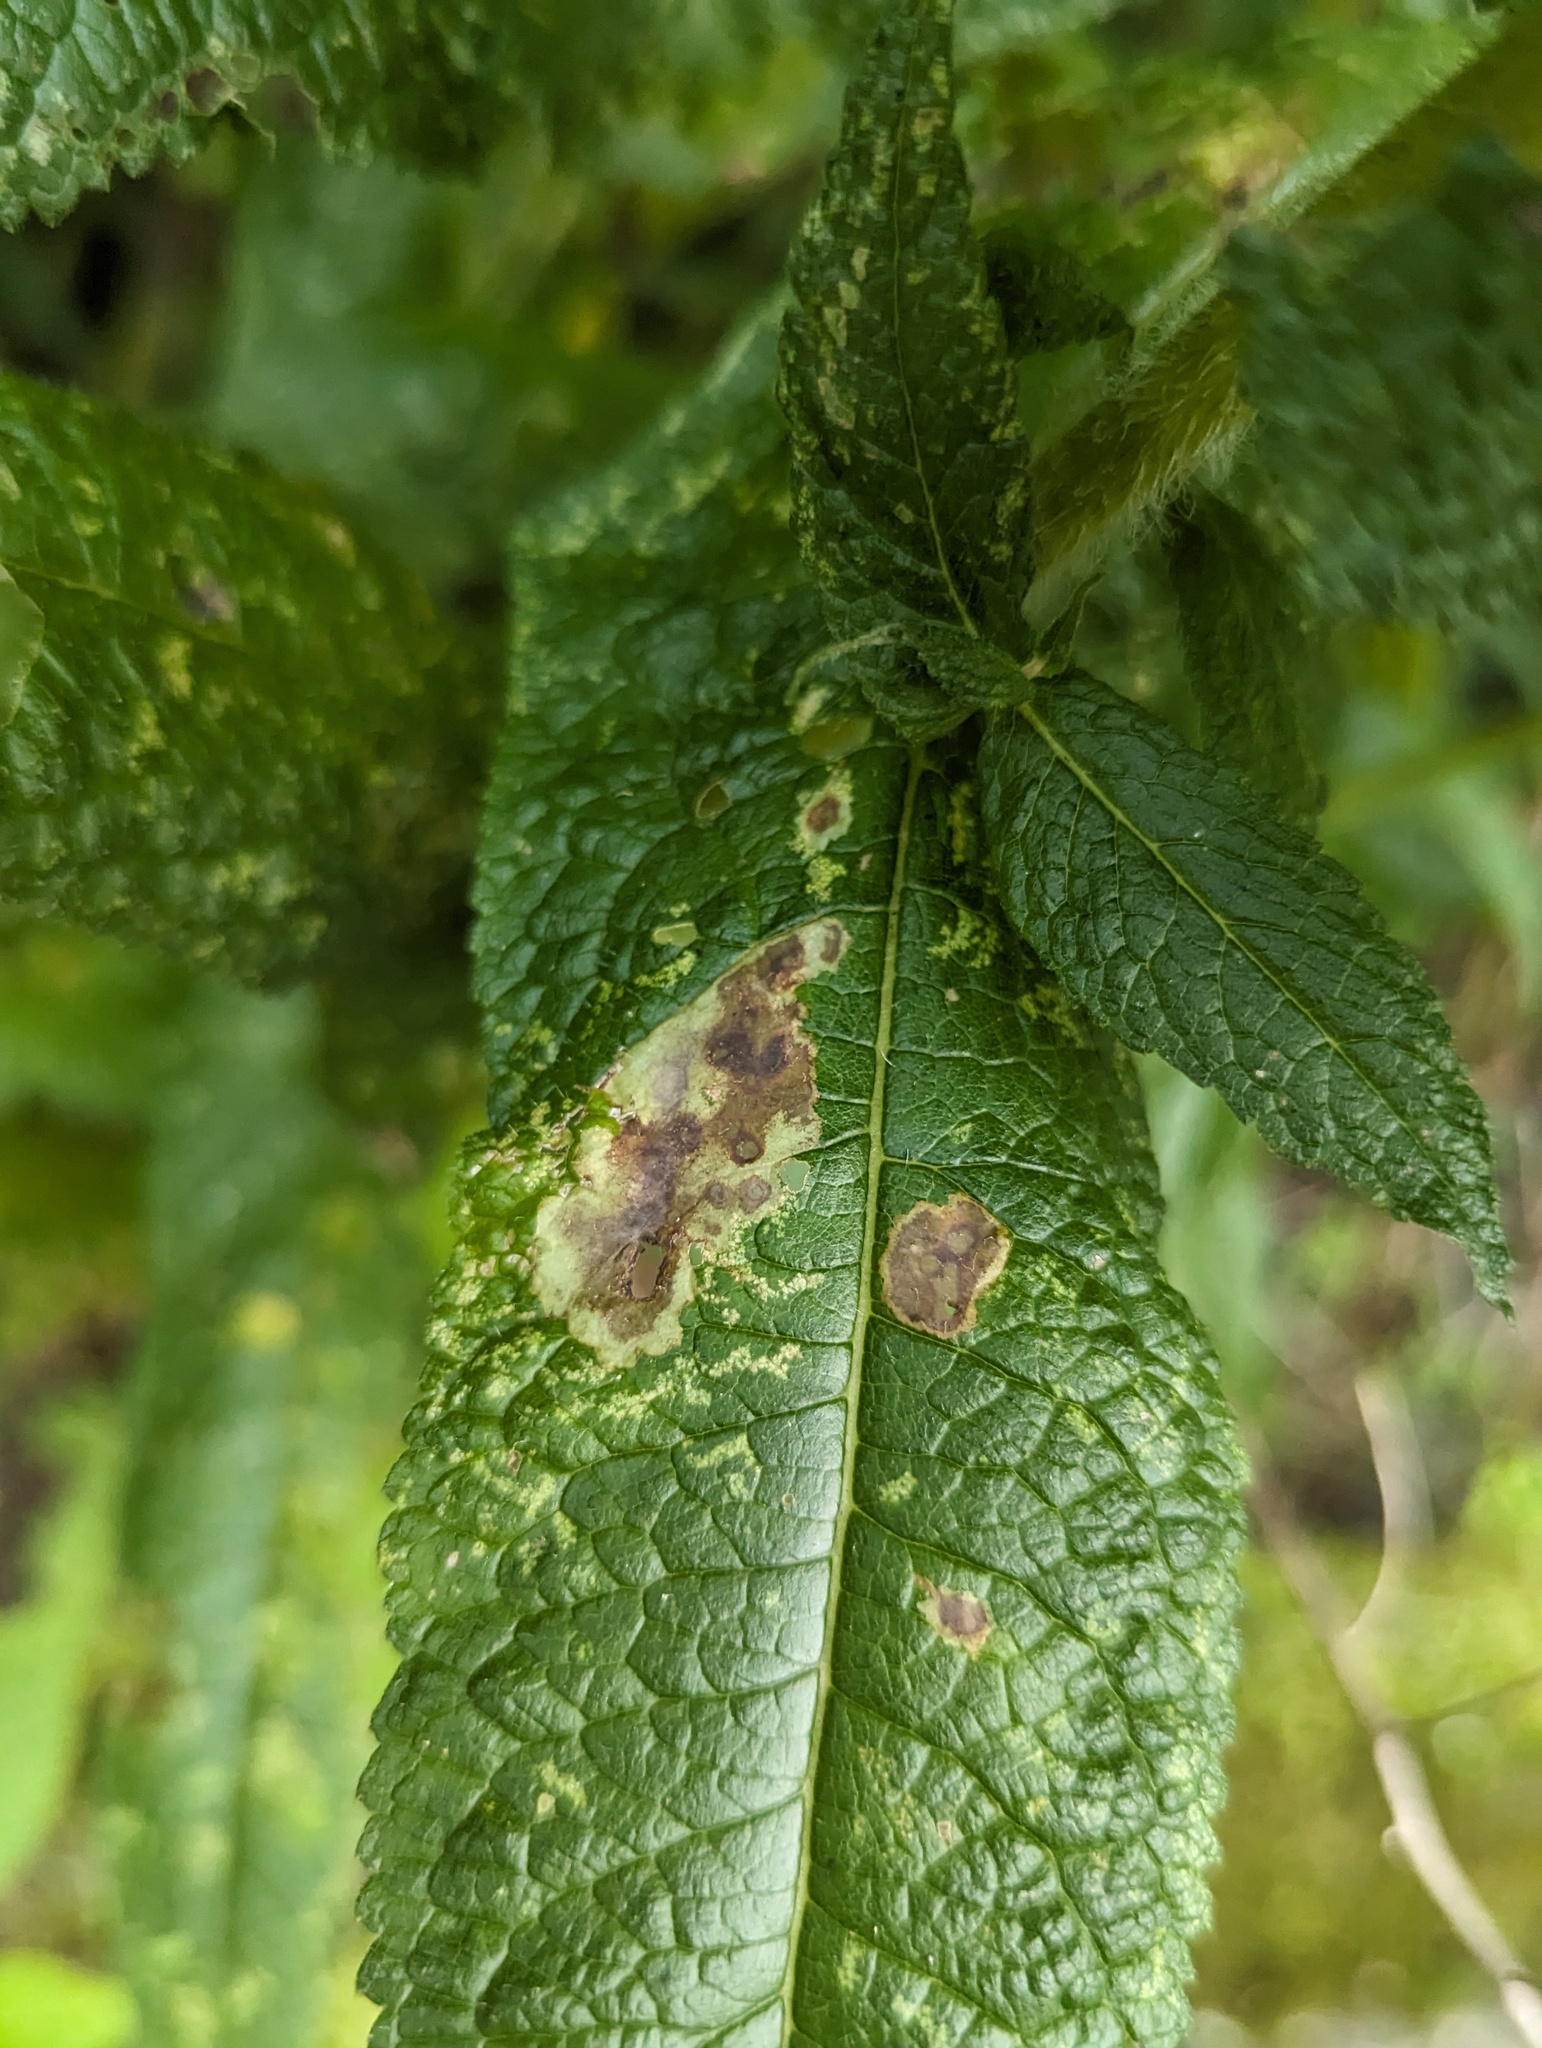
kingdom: Animalia
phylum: Arthropoda
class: Insecta
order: Diptera
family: Agromyzidae
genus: Calycomyza
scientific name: Calycomyza flavinotum
